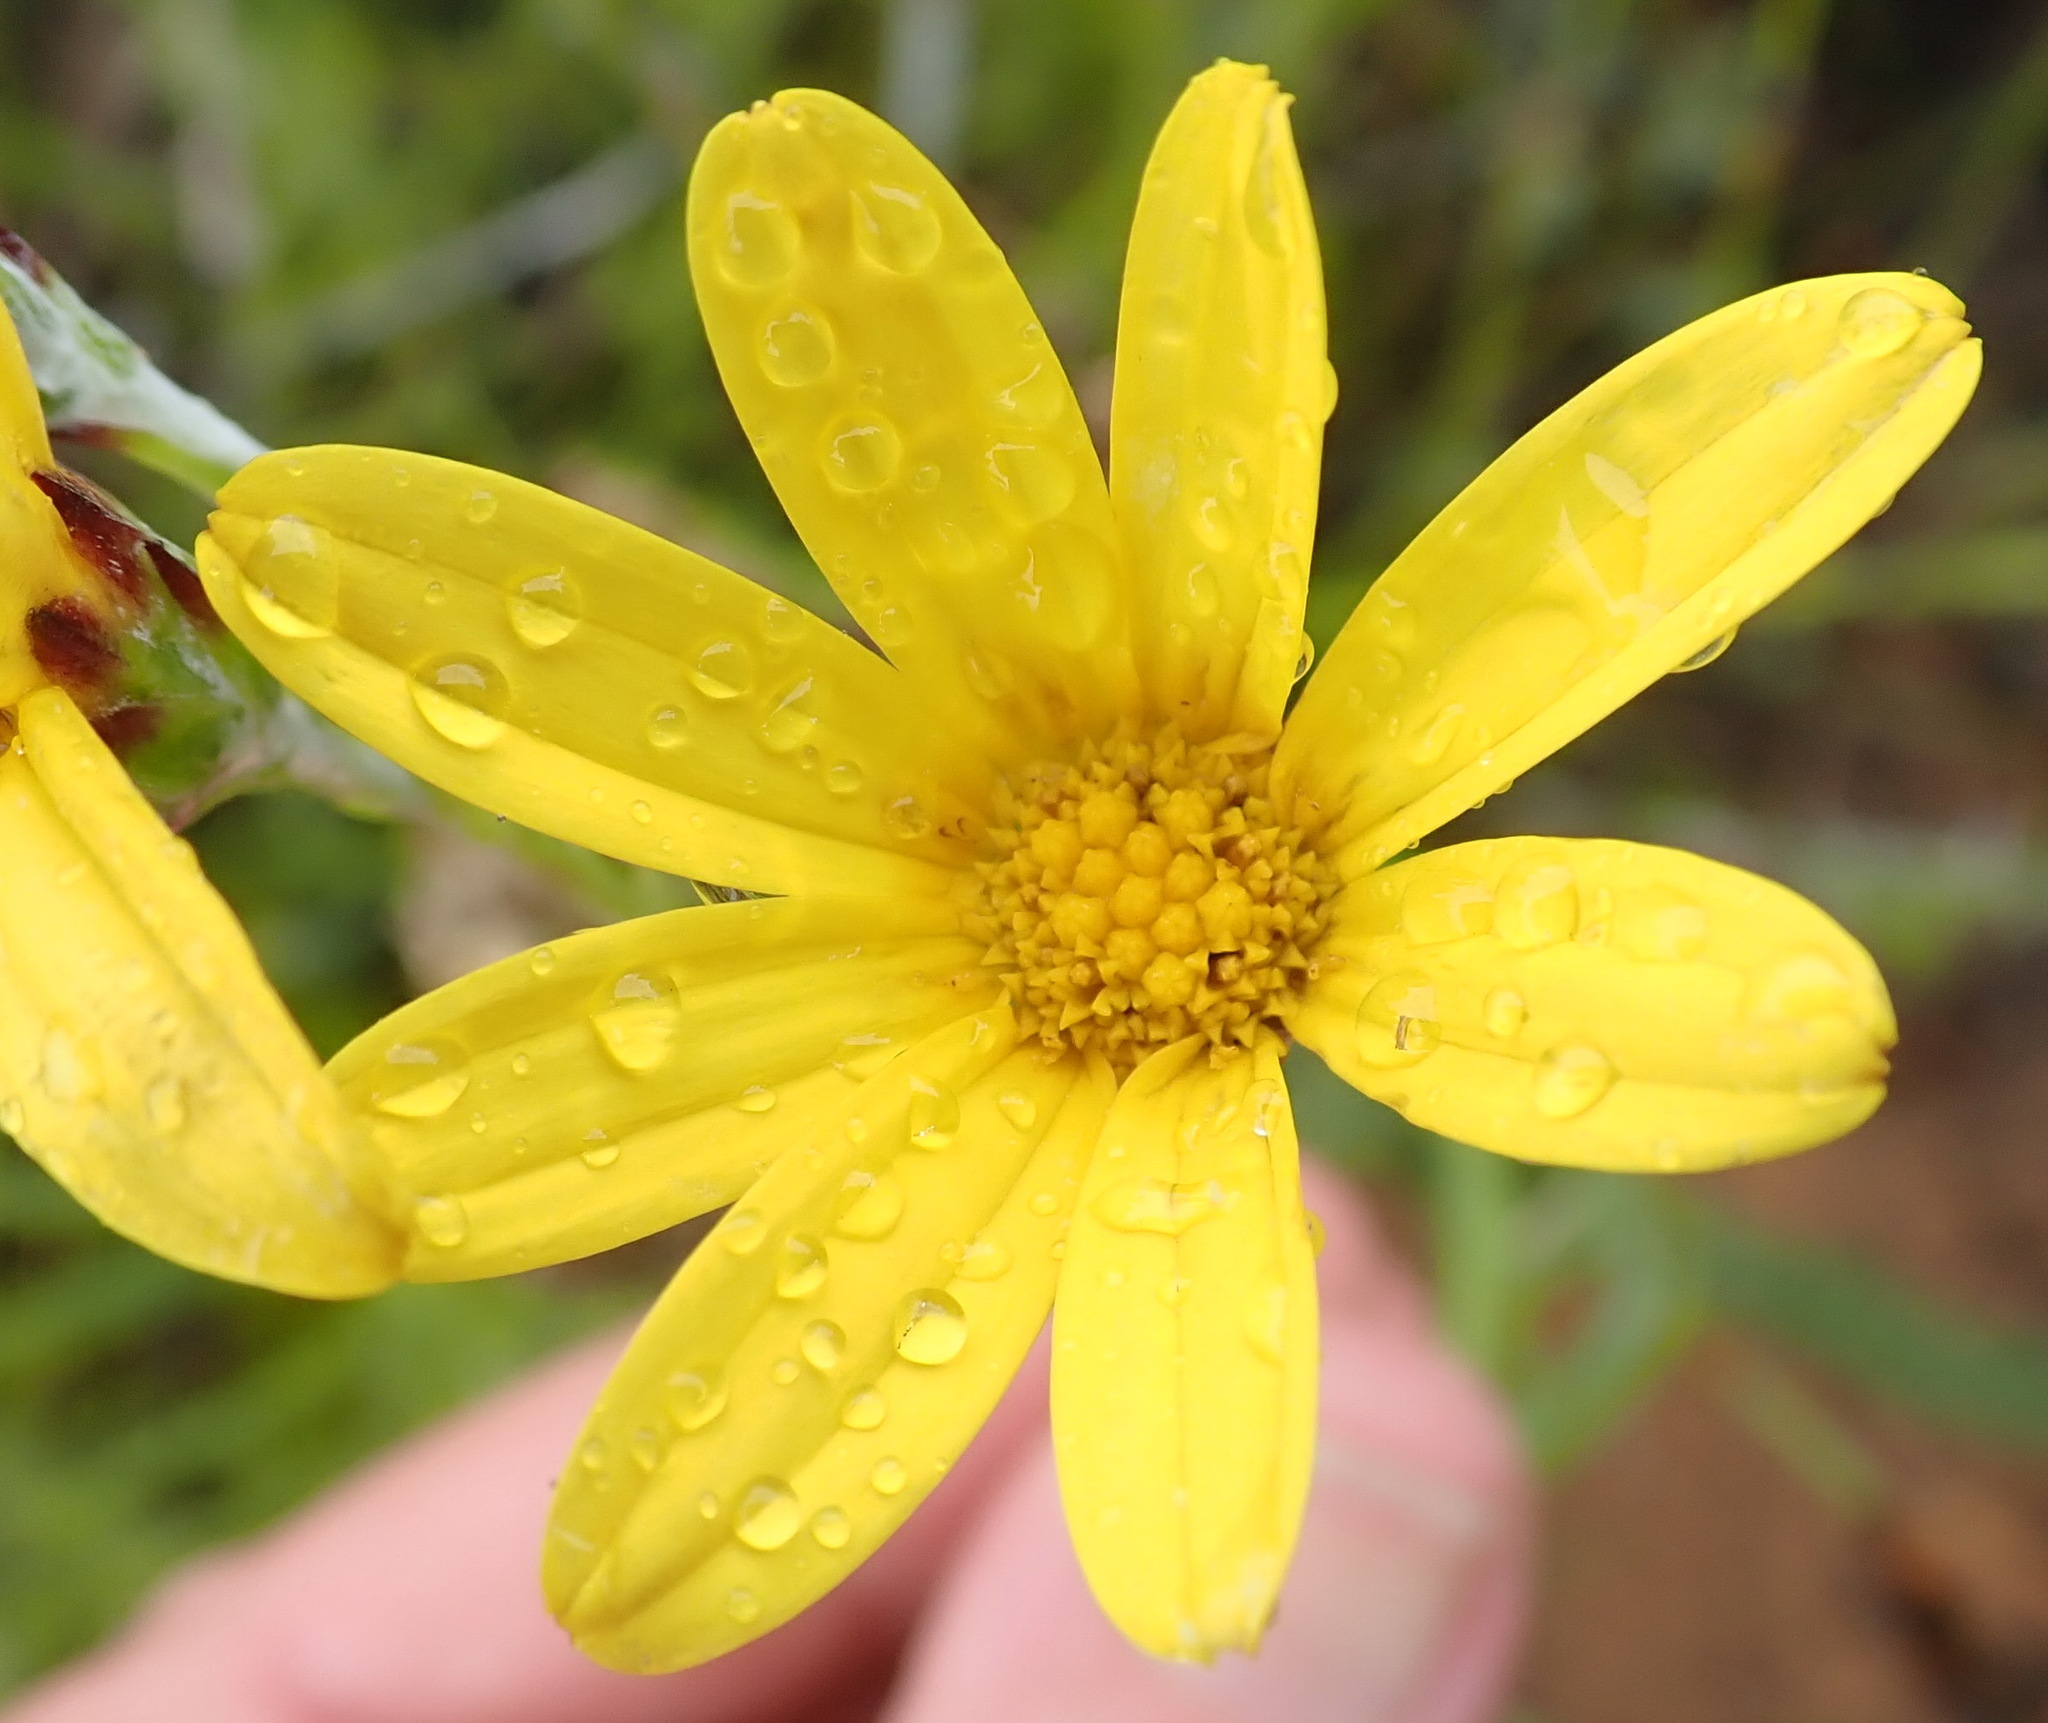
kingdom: Plantae
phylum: Tracheophyta
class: Magnoliopsida
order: Asterales
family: Asteraceae
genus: Osteospermum
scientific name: Osteospermum asperulum
